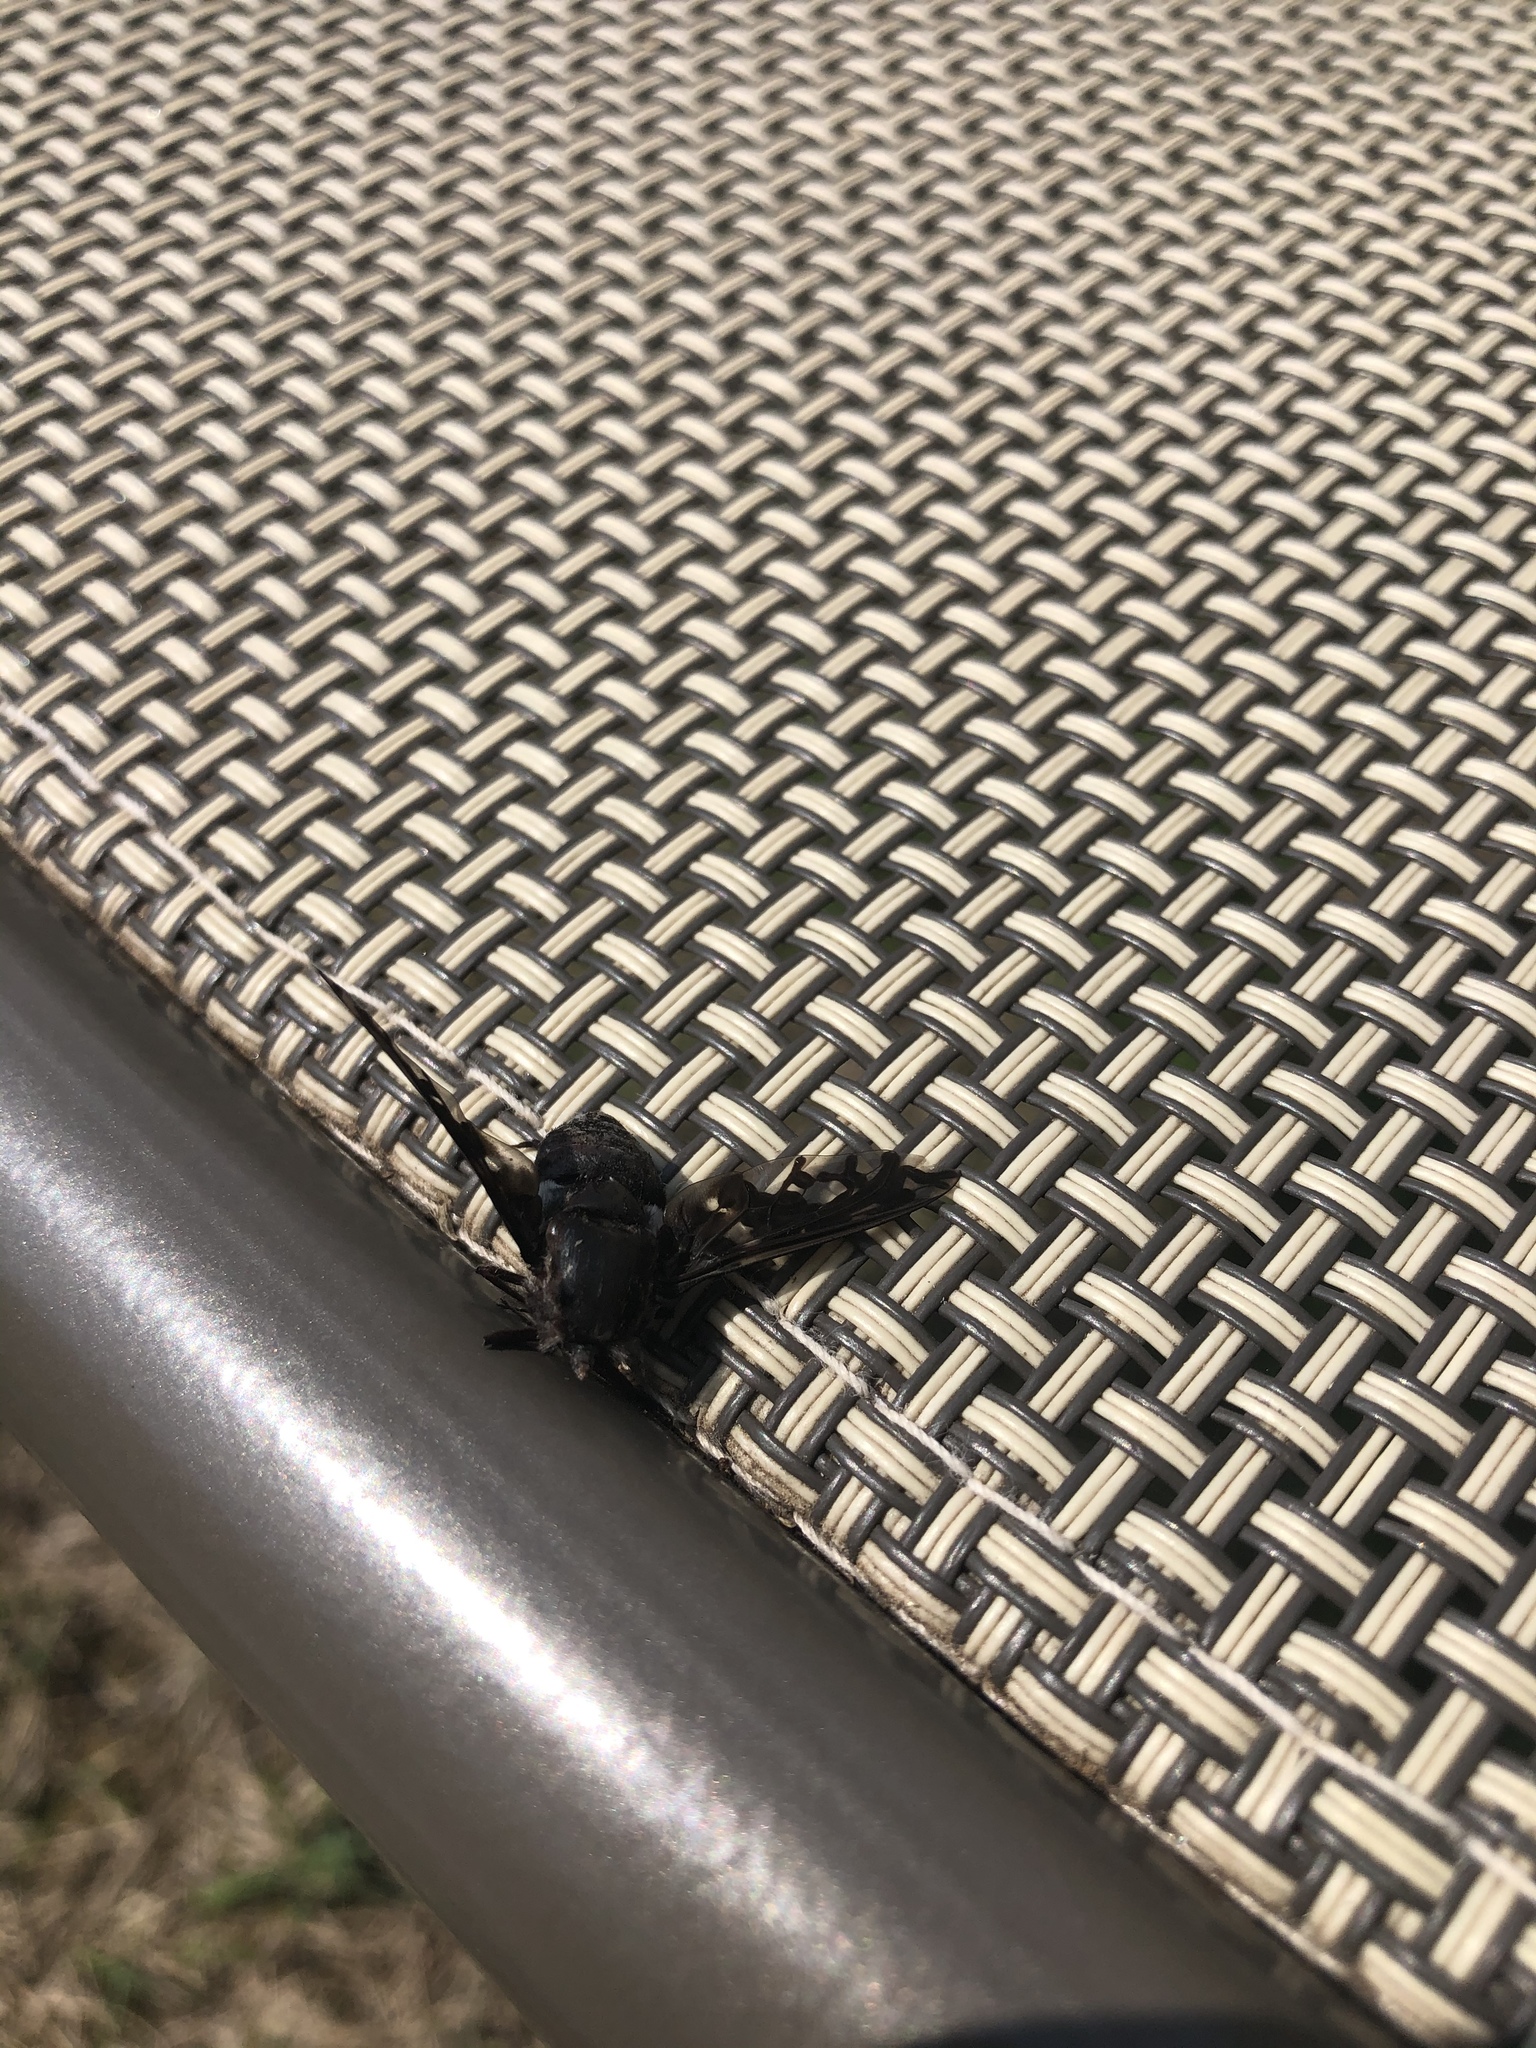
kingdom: Animalia
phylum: Arthropoda
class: Insecta
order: Diptera
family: Bombyliidae
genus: Xenox
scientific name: Xenox tigrinus
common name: Tiger bee fly
